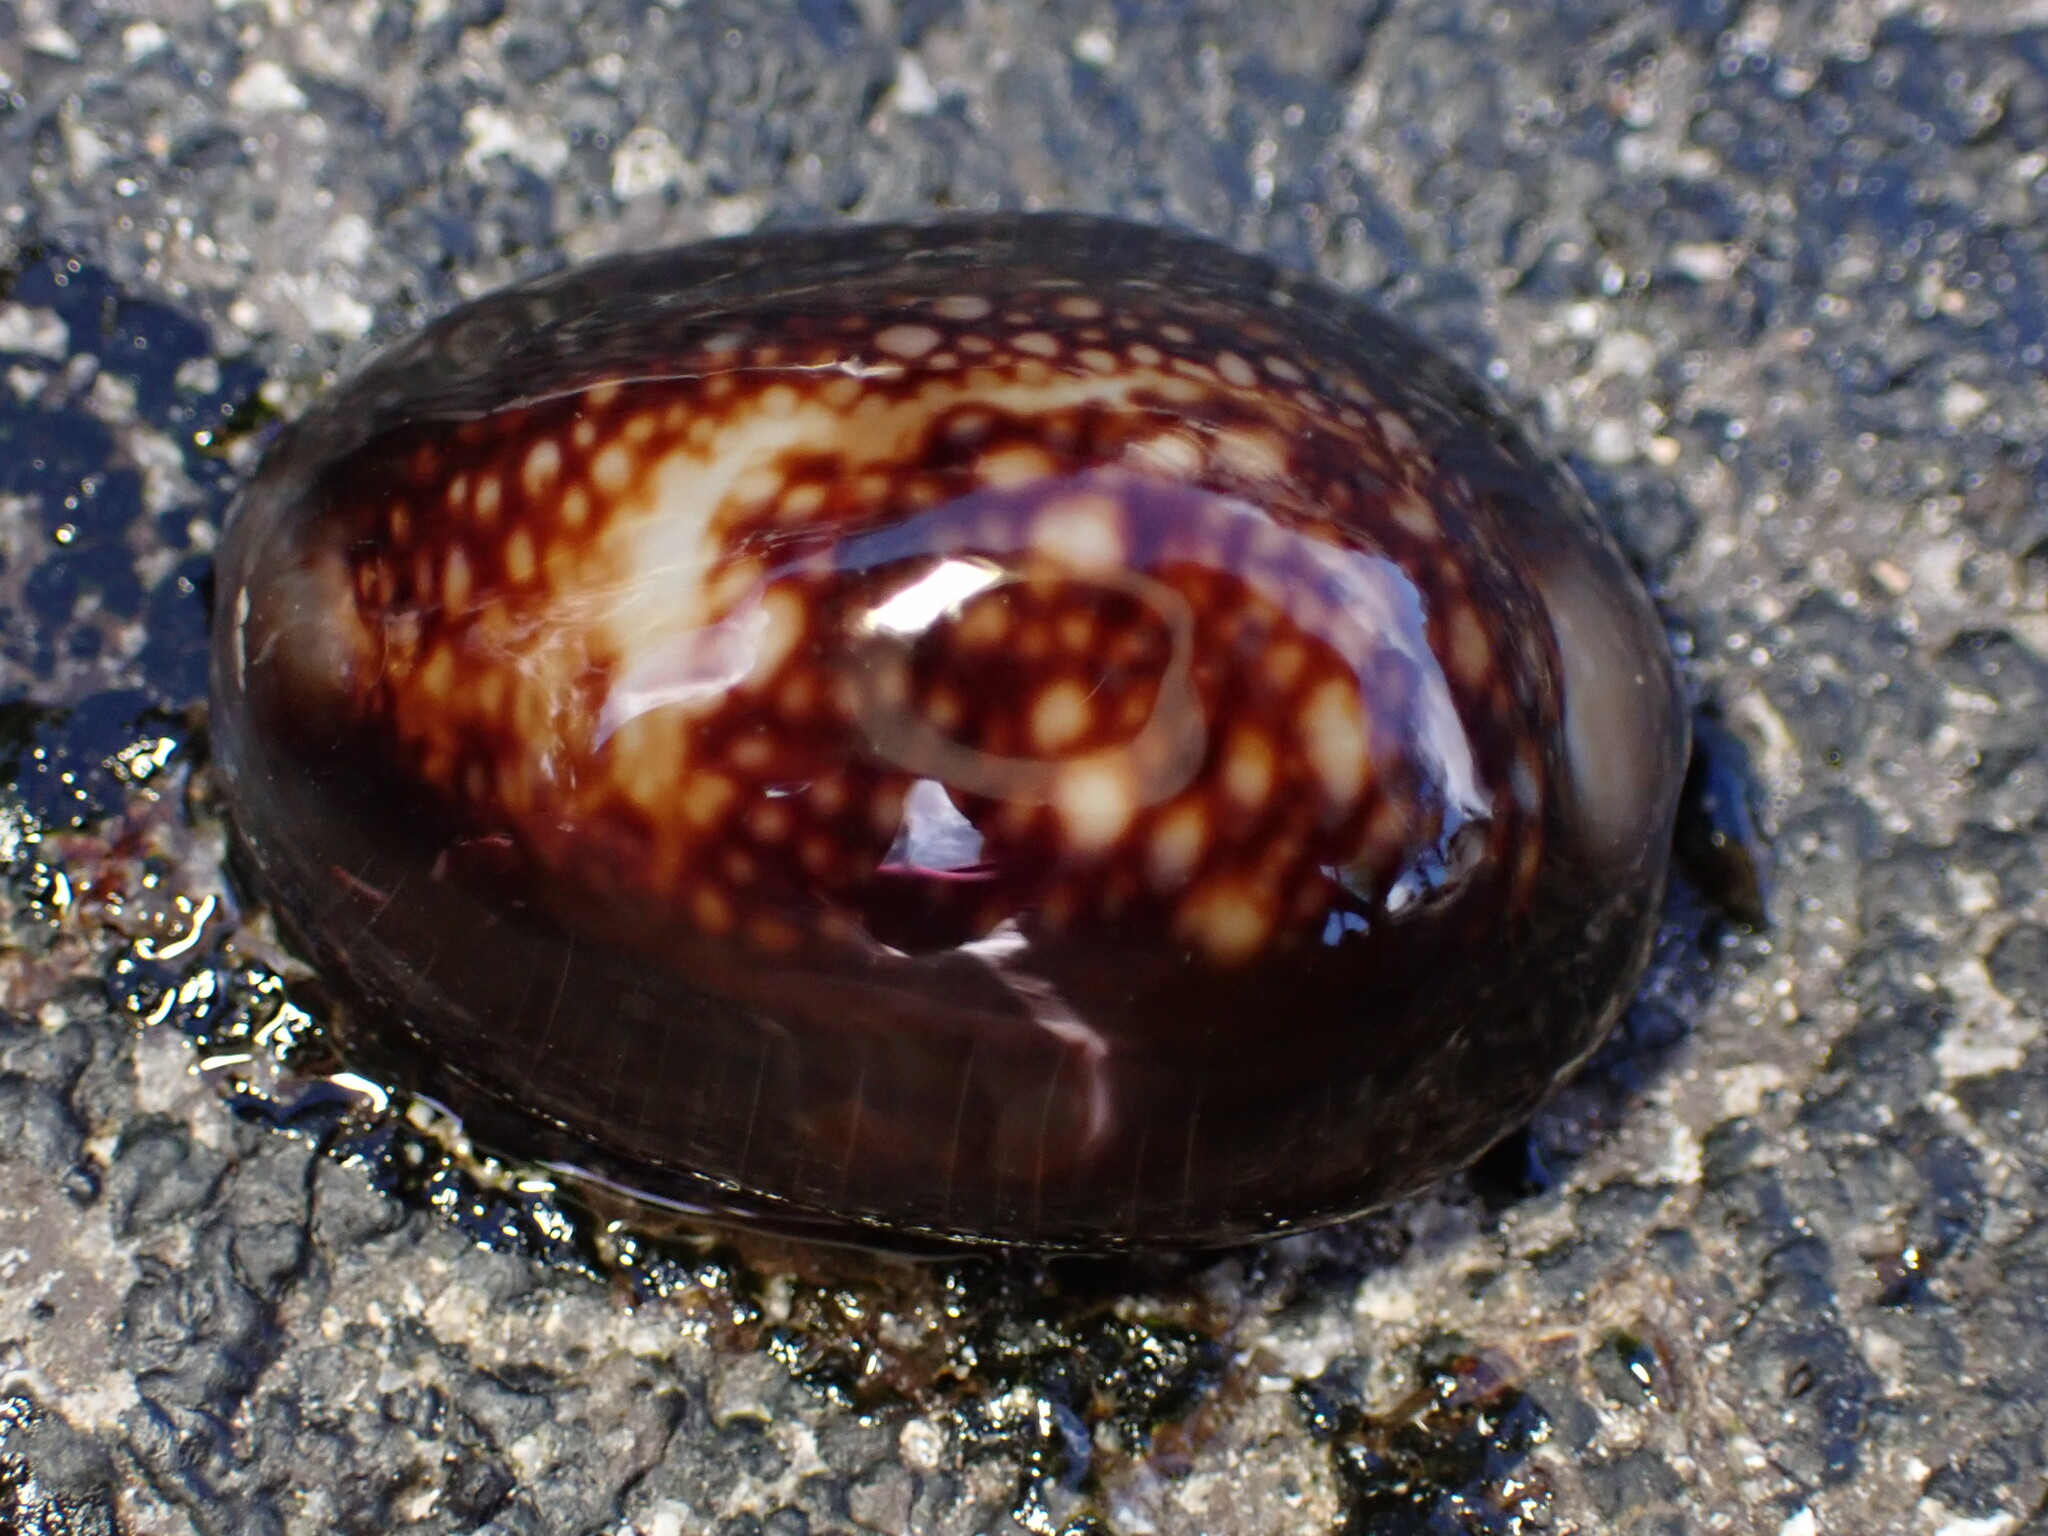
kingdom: Animalia
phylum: Mollusca
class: Gastropoda
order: Littorinimorpha
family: Cypraeidae
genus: Monetaria
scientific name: Monetaria caputophidii
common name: Snake's head cowry
